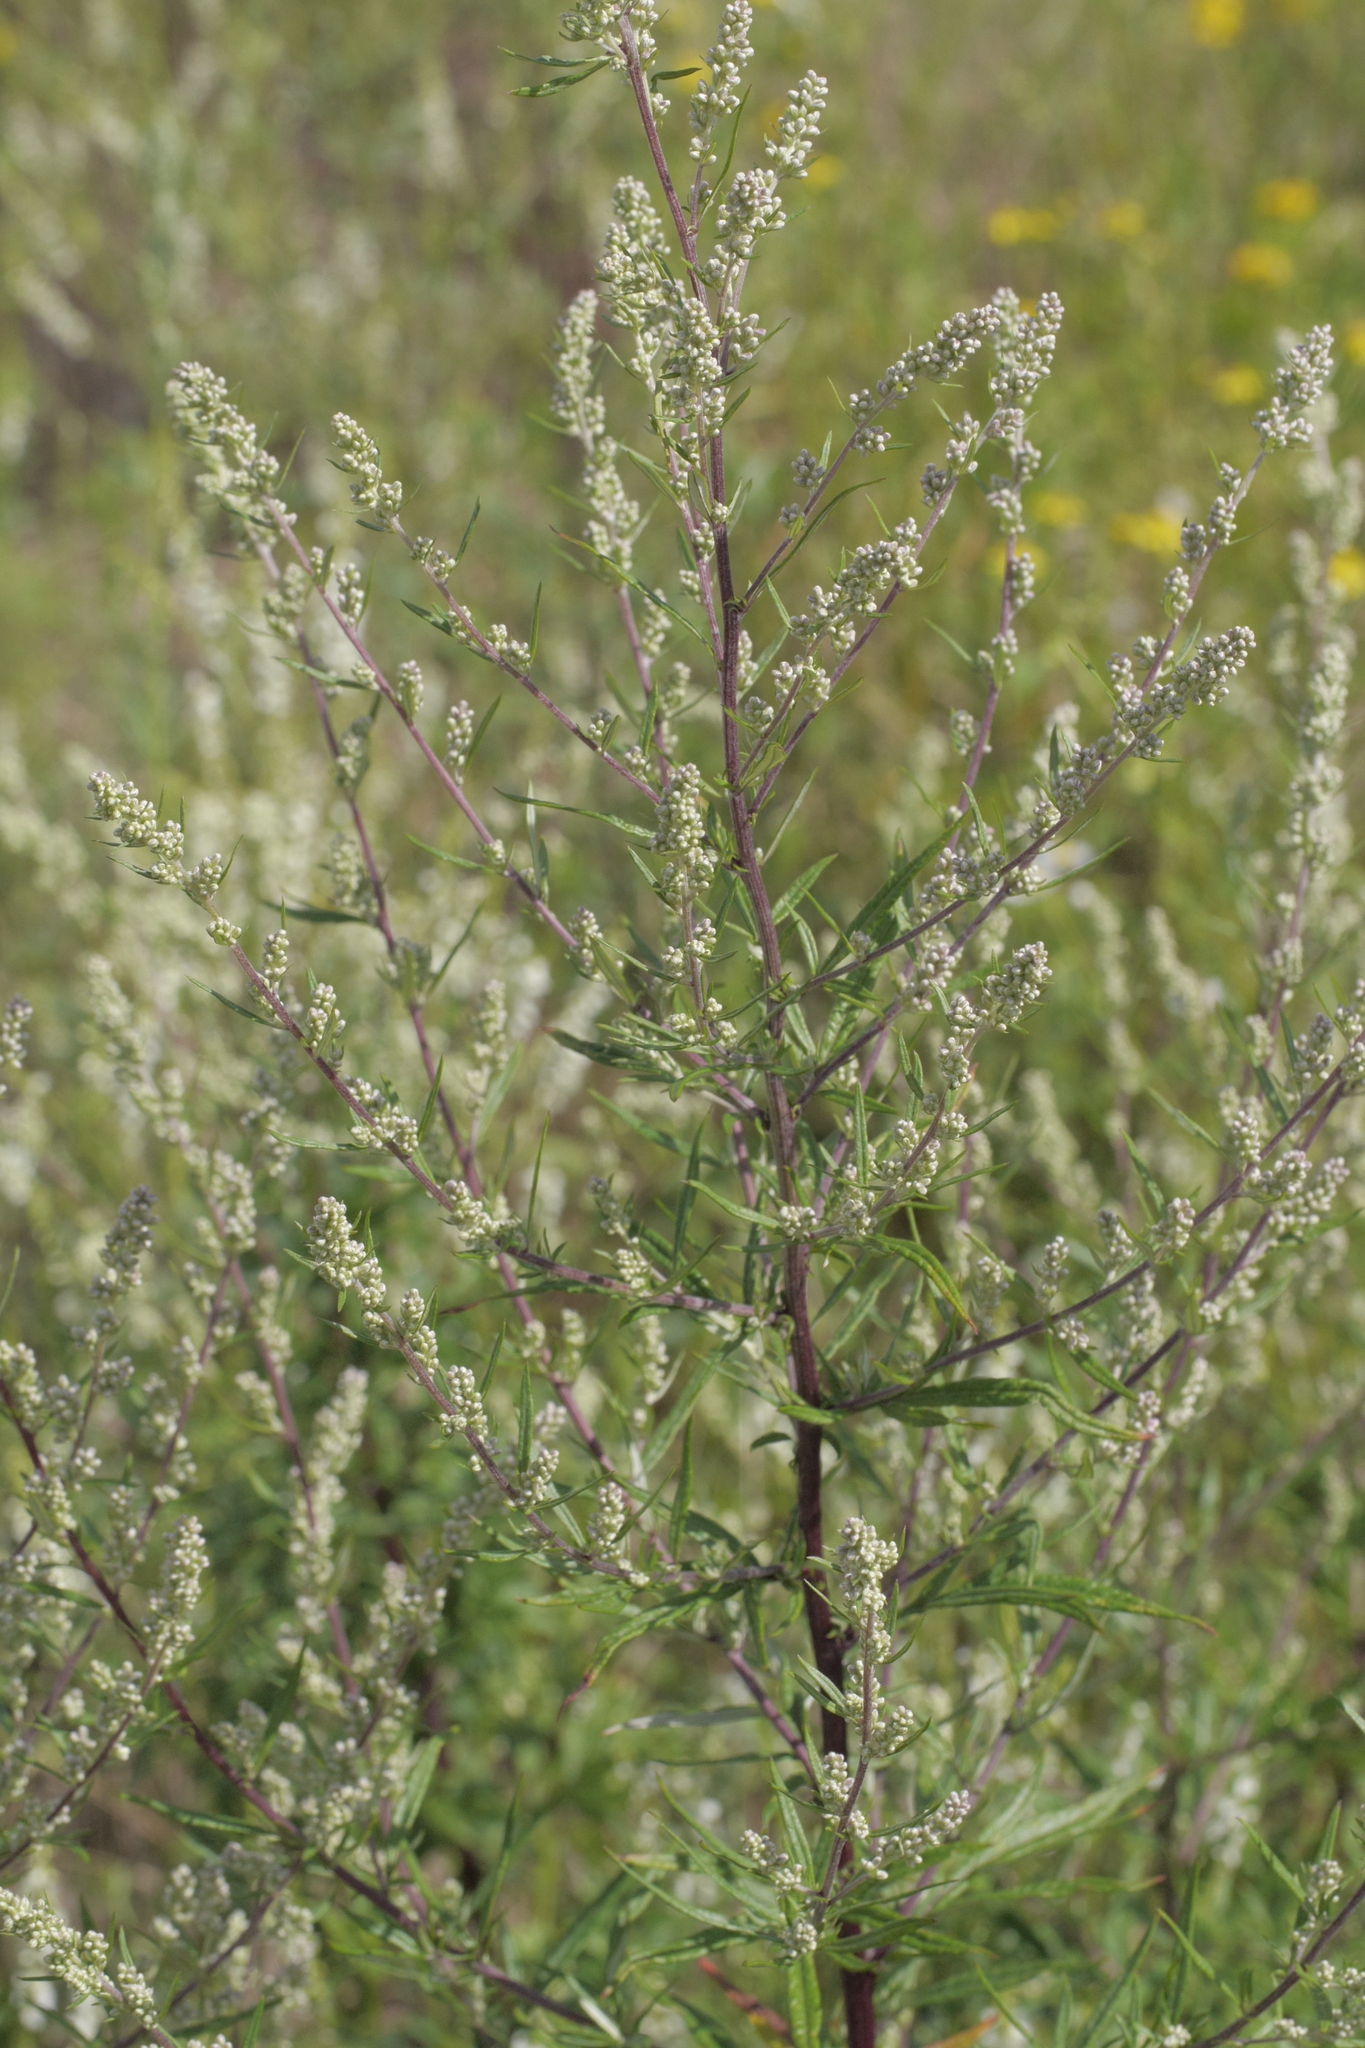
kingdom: Plantae
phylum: Tracheophyta
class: Magnoliopsida
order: Asterales
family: Asteraceae
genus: Artemisia
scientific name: Artemisia vulgaris
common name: Mugwort
